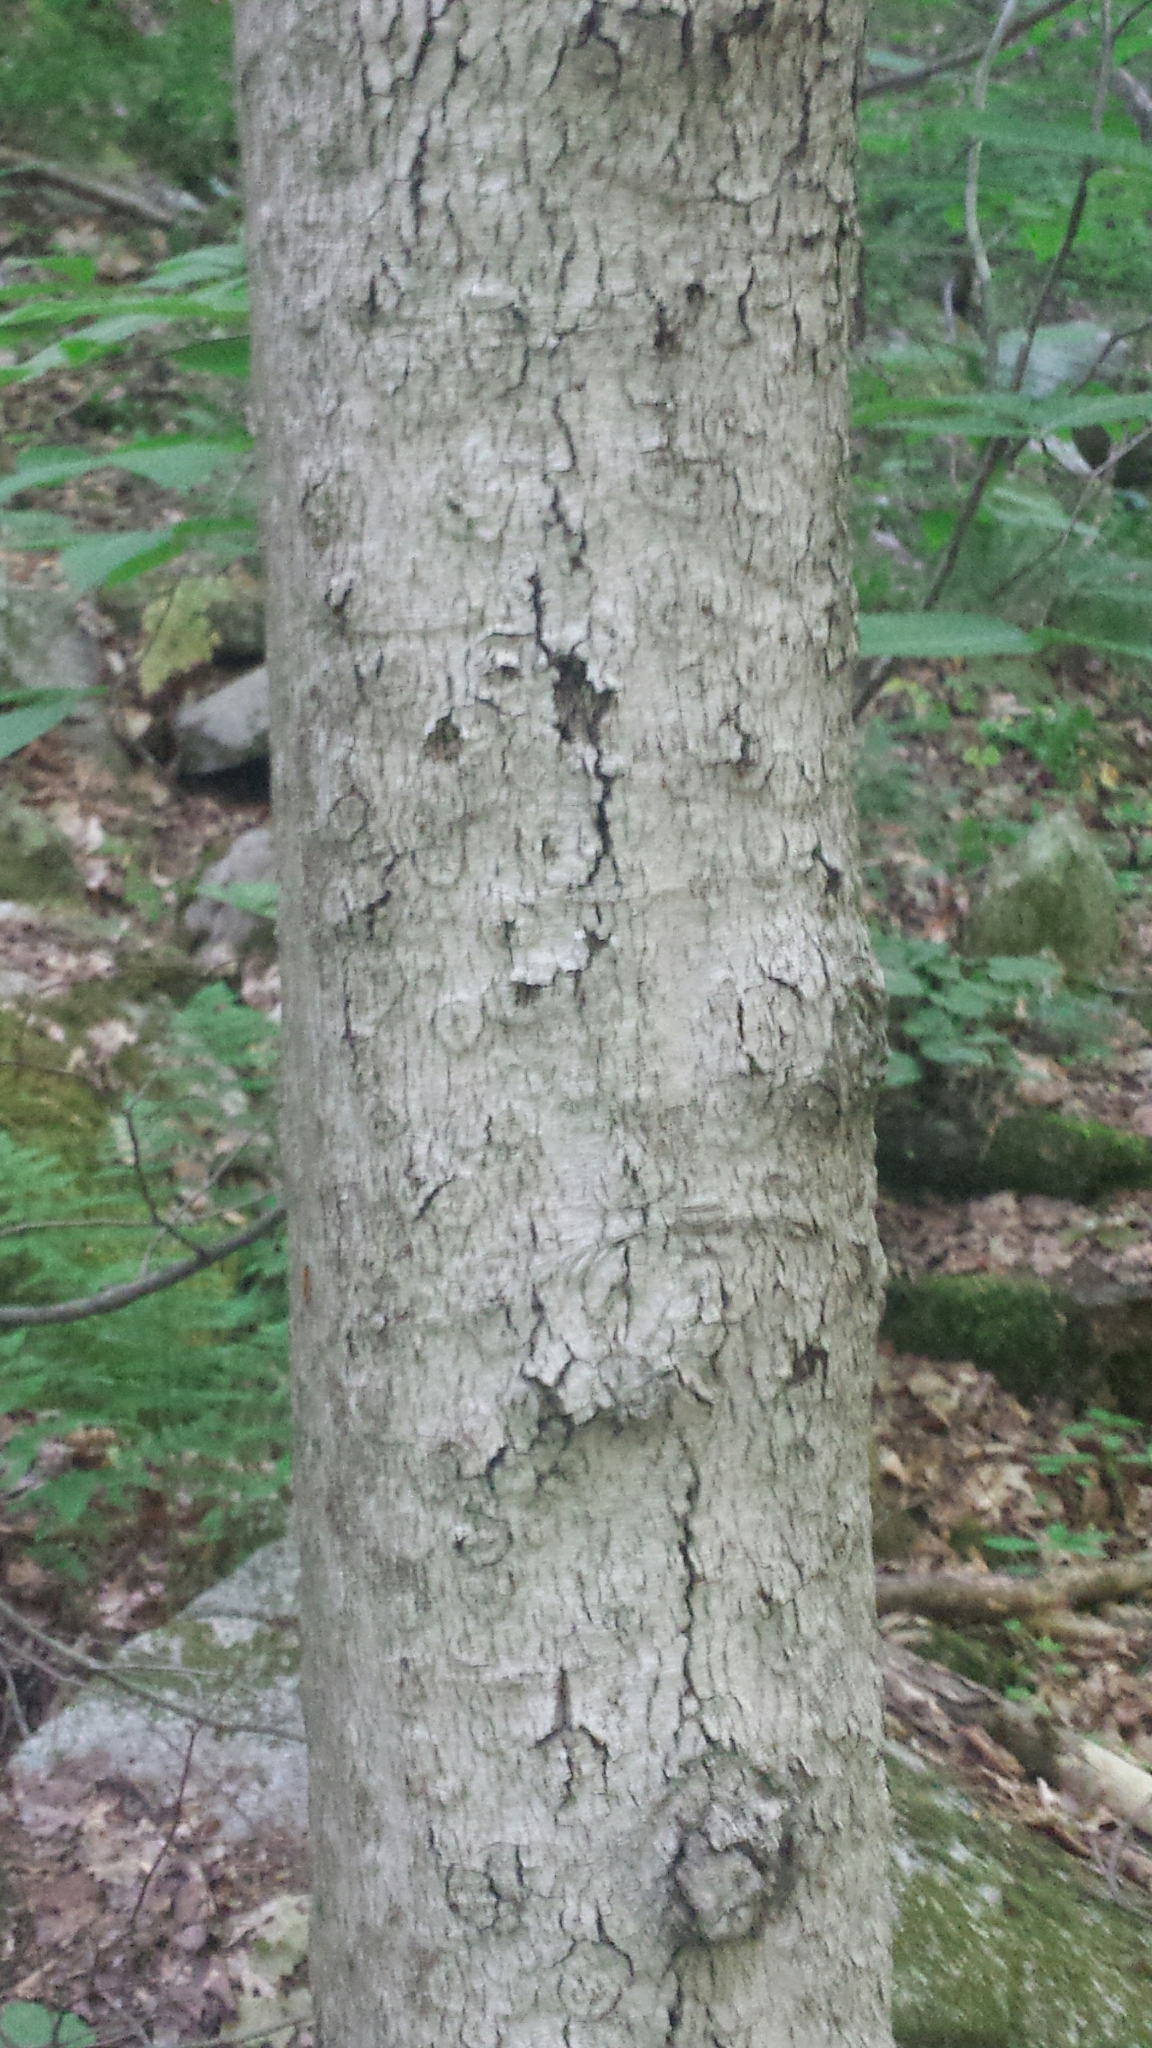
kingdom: Plantae
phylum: Tracheophyta
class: Magnoliopsida
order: Fagales
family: Fagaceae
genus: Fagus
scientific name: Fagus grandifolia
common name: American beech
